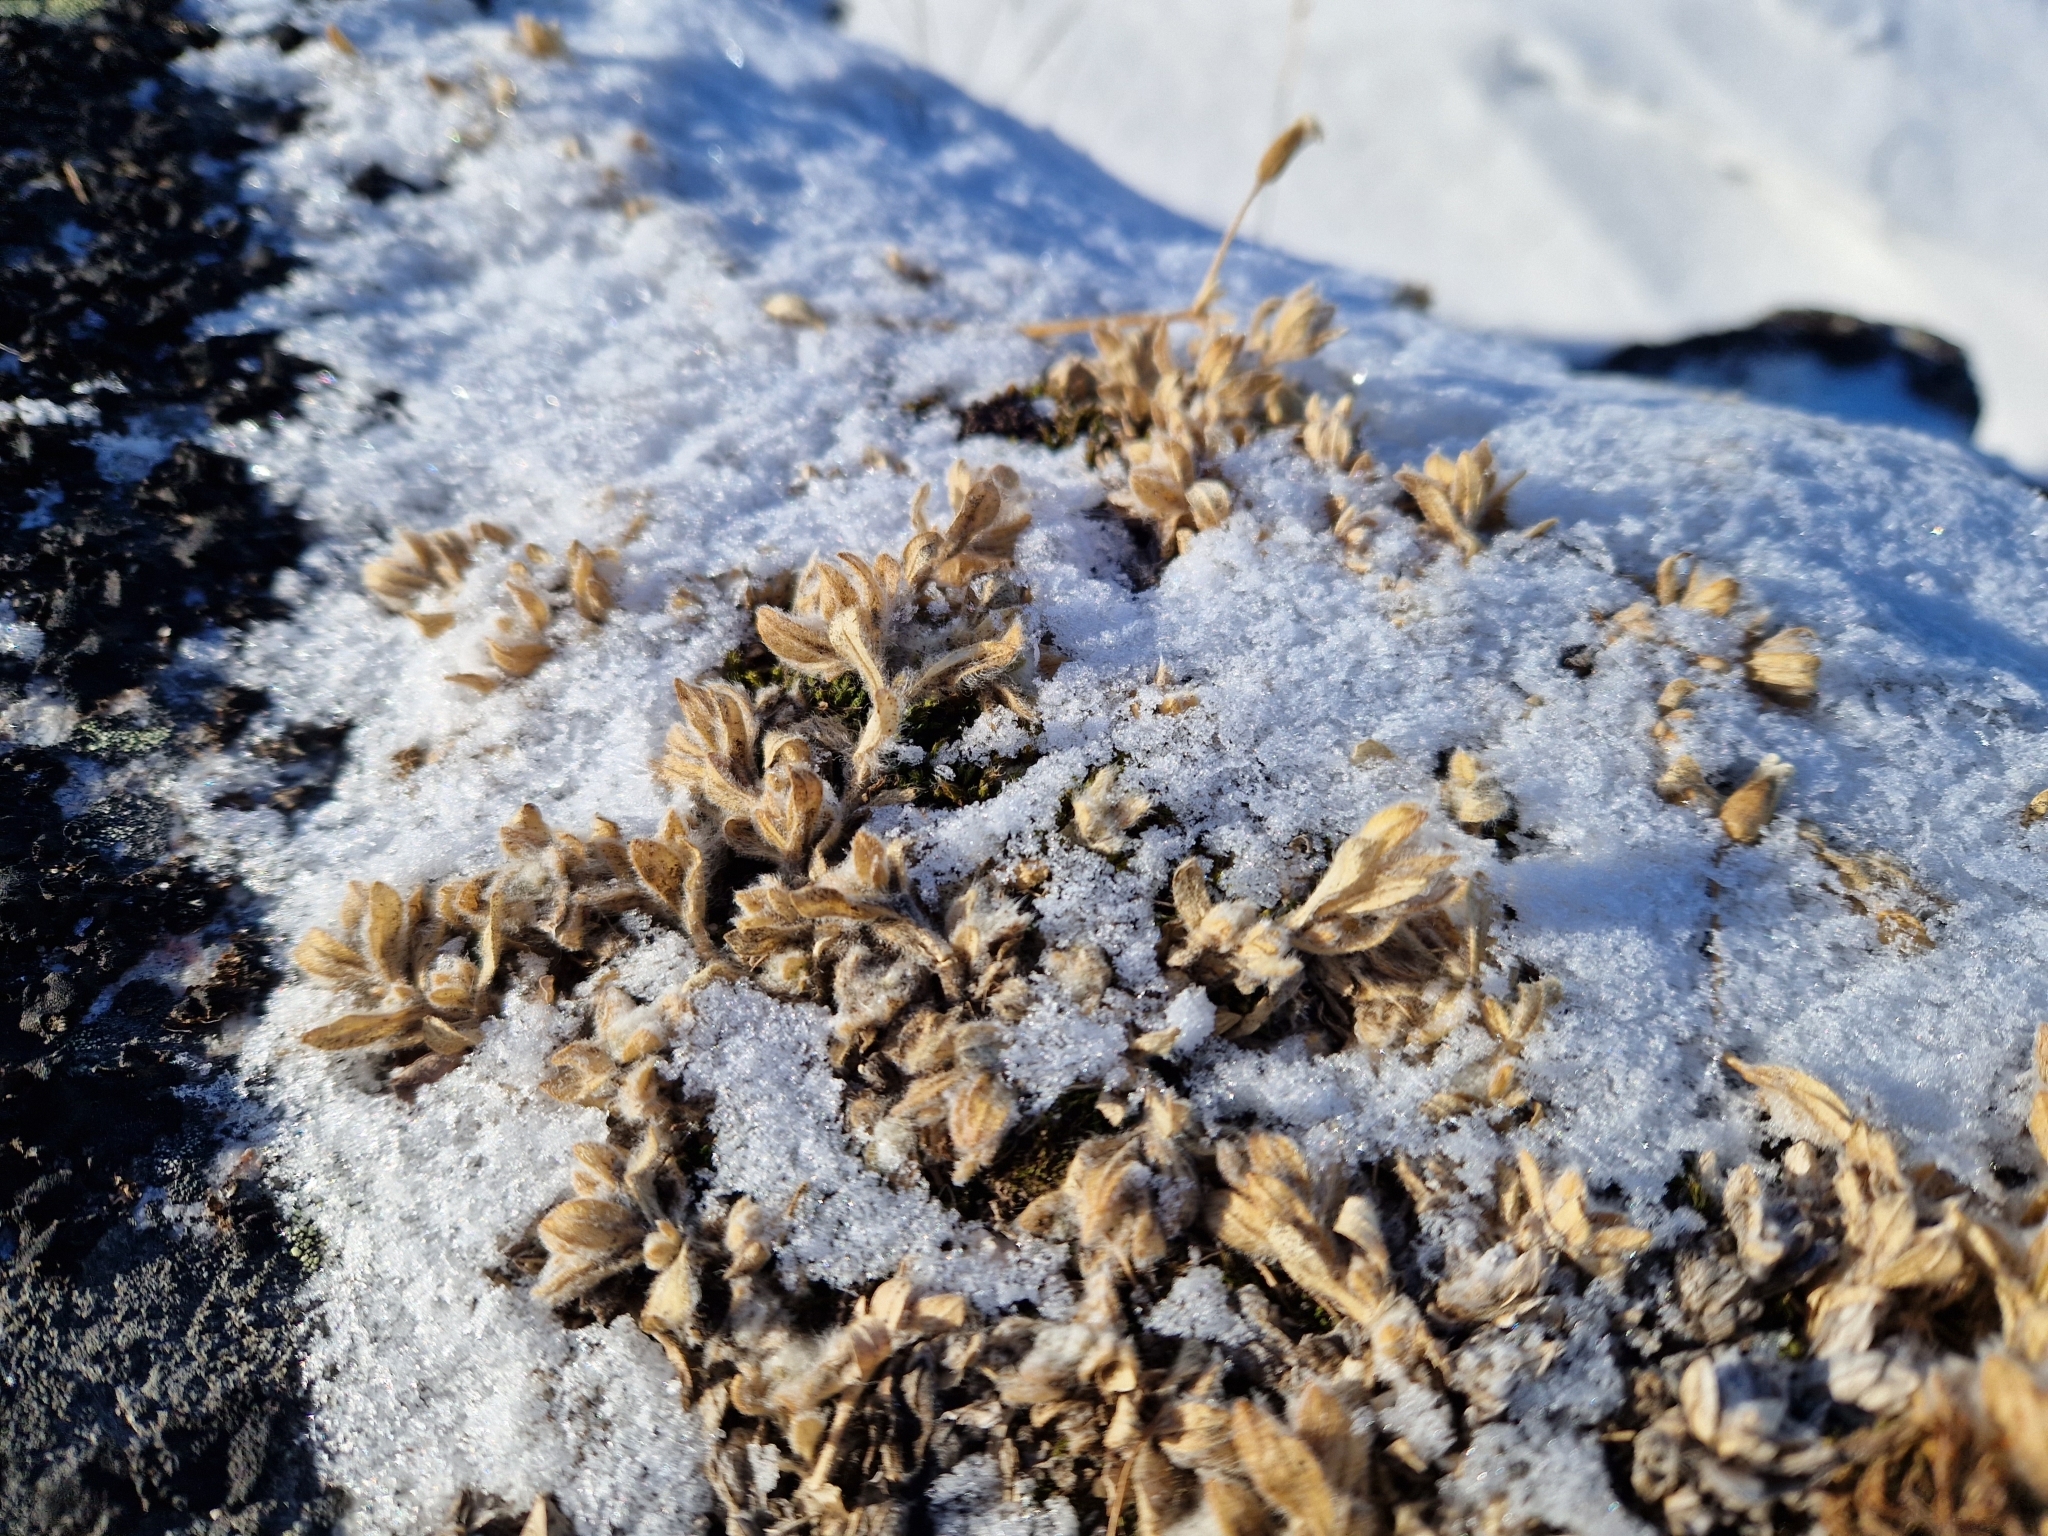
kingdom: Plantae
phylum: Tracheophyta
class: Magnoliopsida
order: Caryophyllales
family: Caryophyllaceae
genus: Cerastium
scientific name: Cerastium alpinum
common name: Alpine mouse-ear
